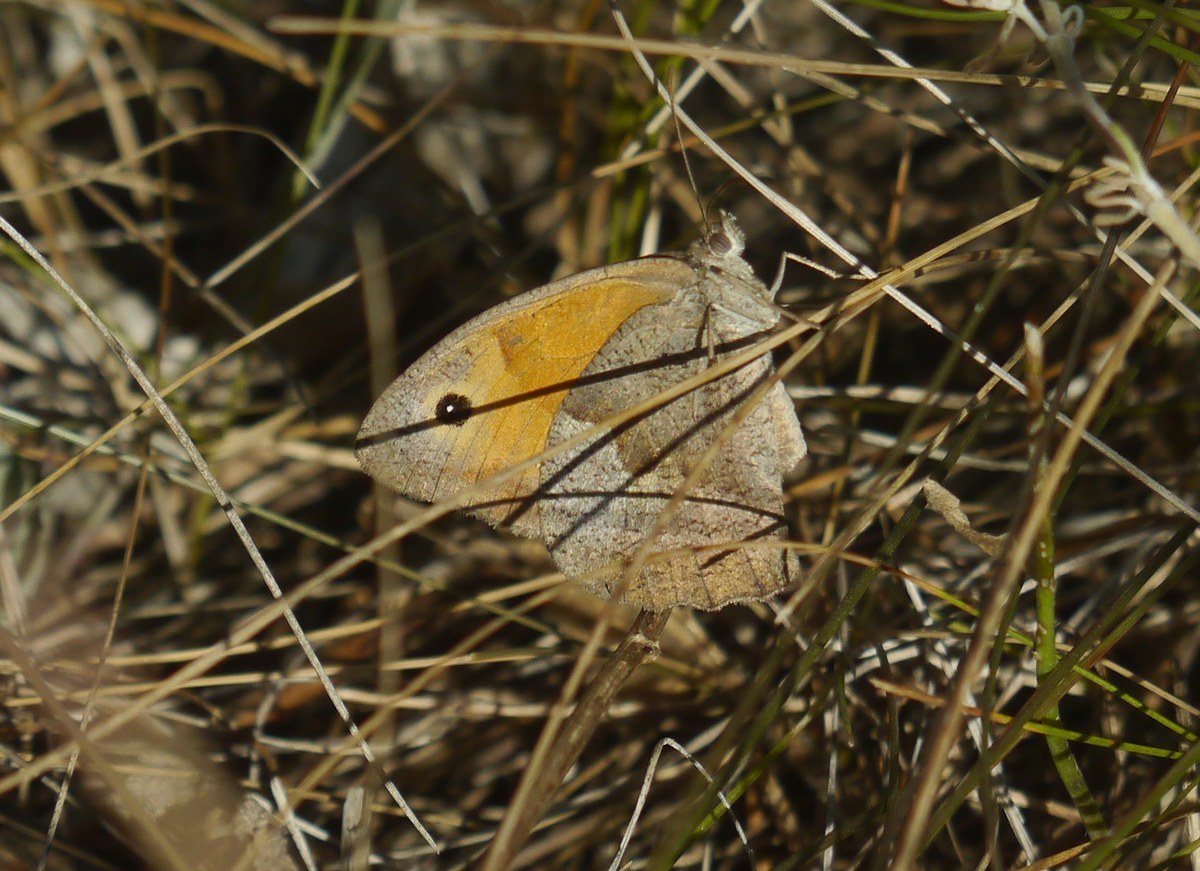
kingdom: Animalia
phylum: Arthropoda
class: Insecta
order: Lepidoptera
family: Nymphalidae
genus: Maniola
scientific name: Maniola jurtina
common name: Meadow brown
